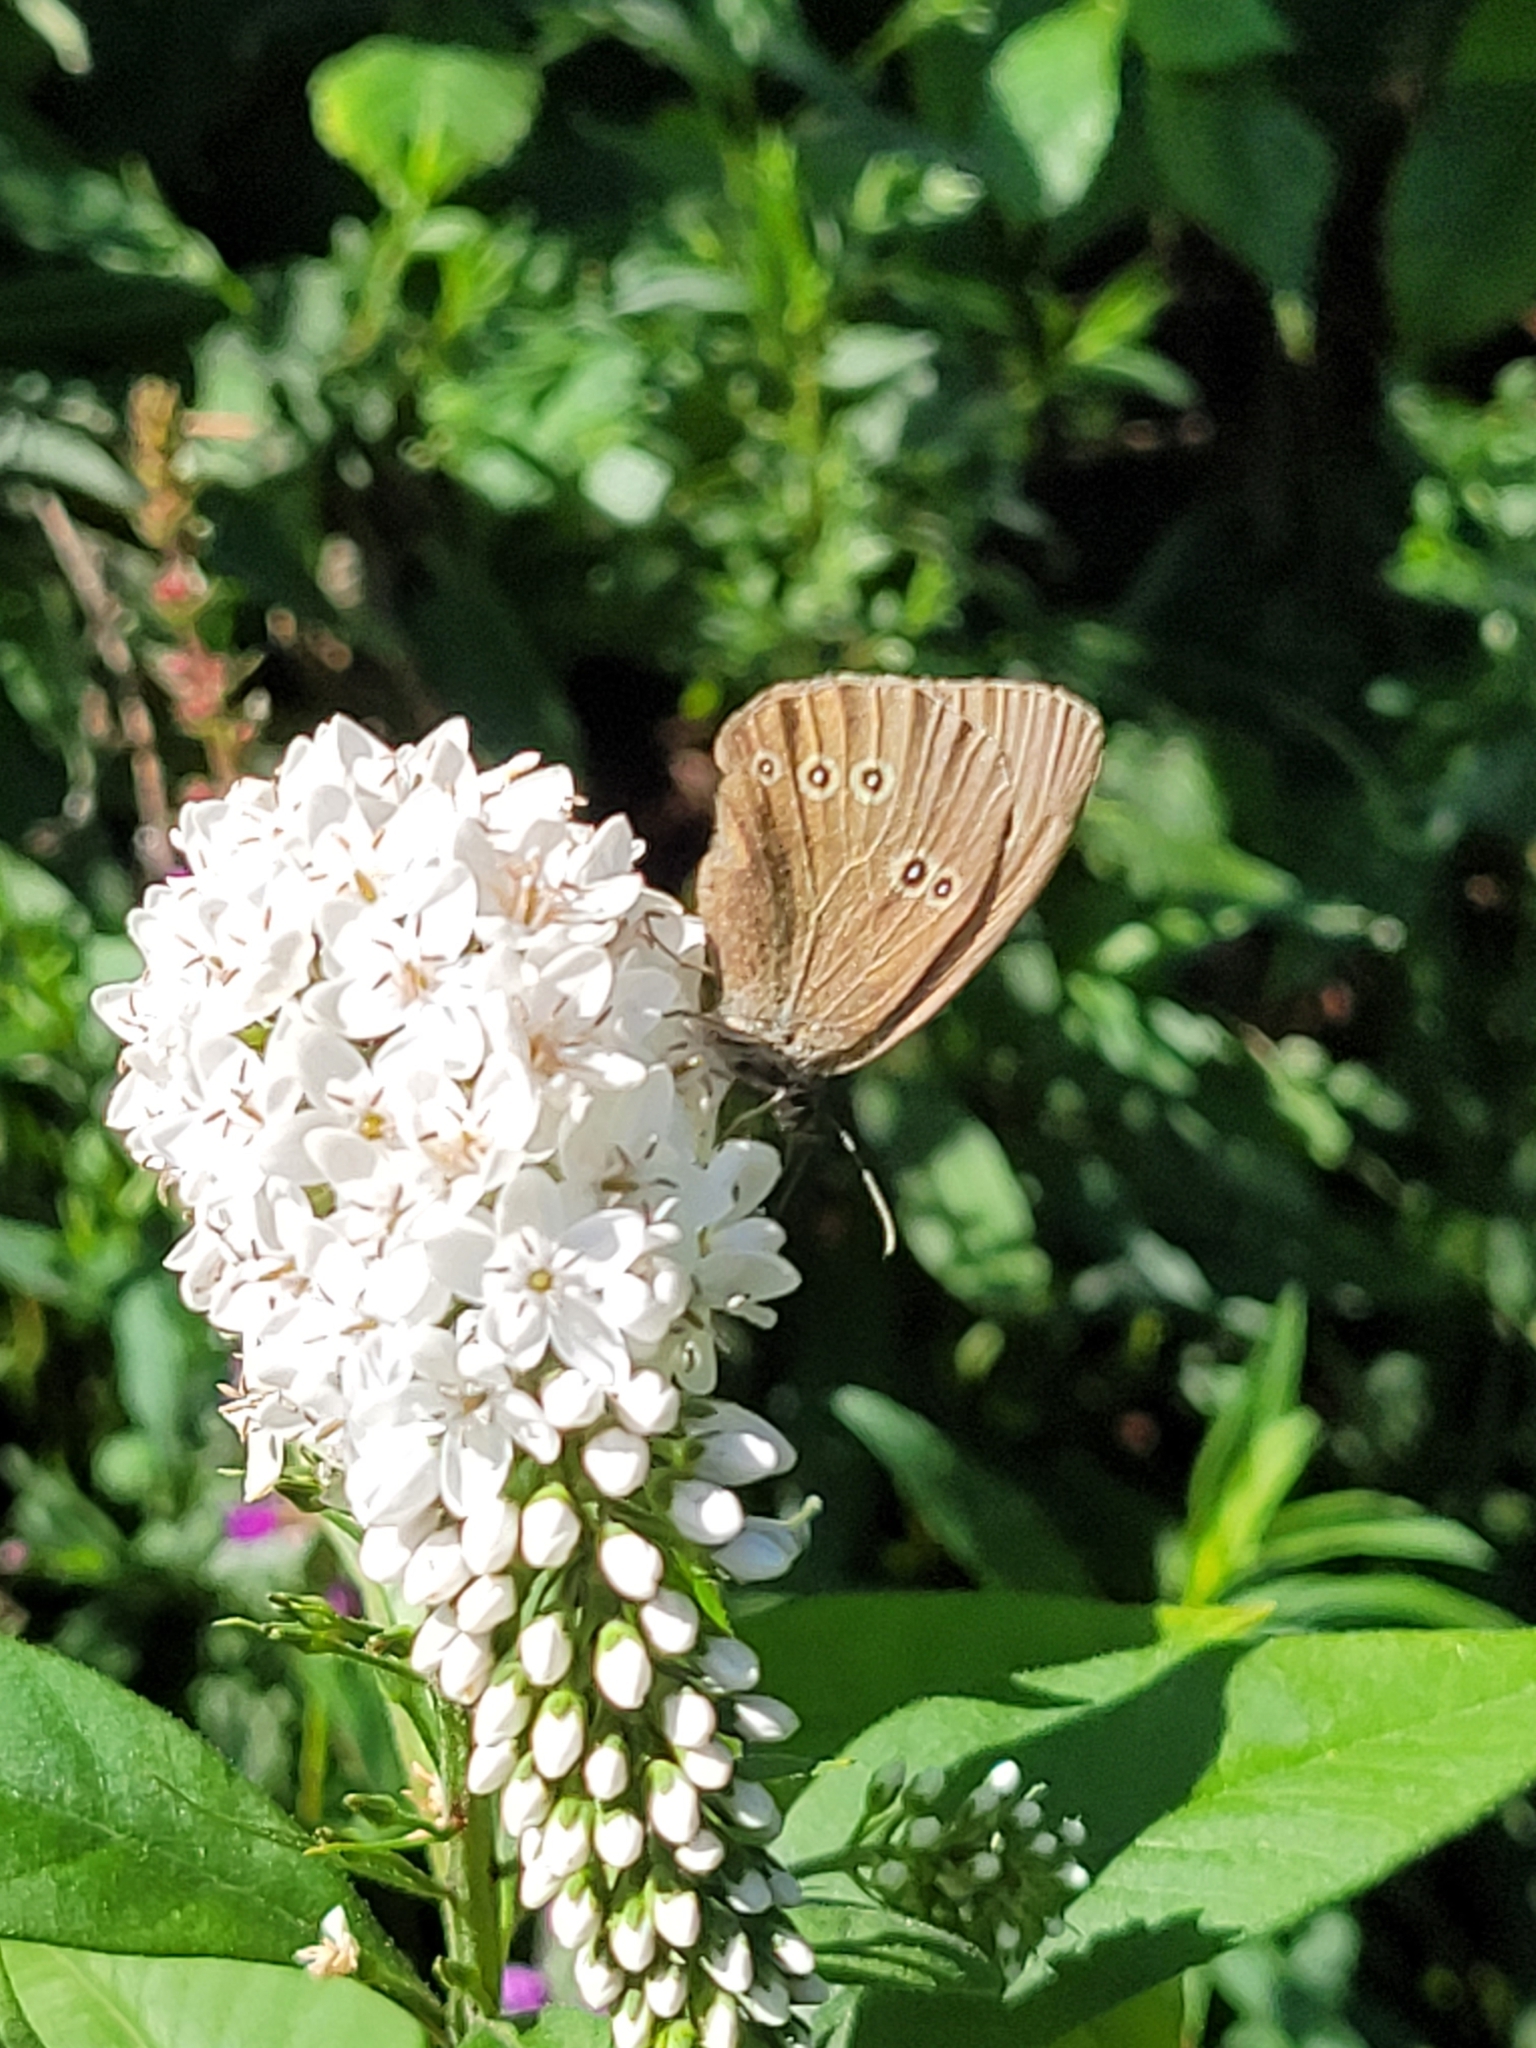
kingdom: Animalia
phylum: Arthropoda
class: Insecta
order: Lepidoptera
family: Nymphalidae
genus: Aphantopus
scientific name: Aphantopus hyperantus
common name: Ringlet
